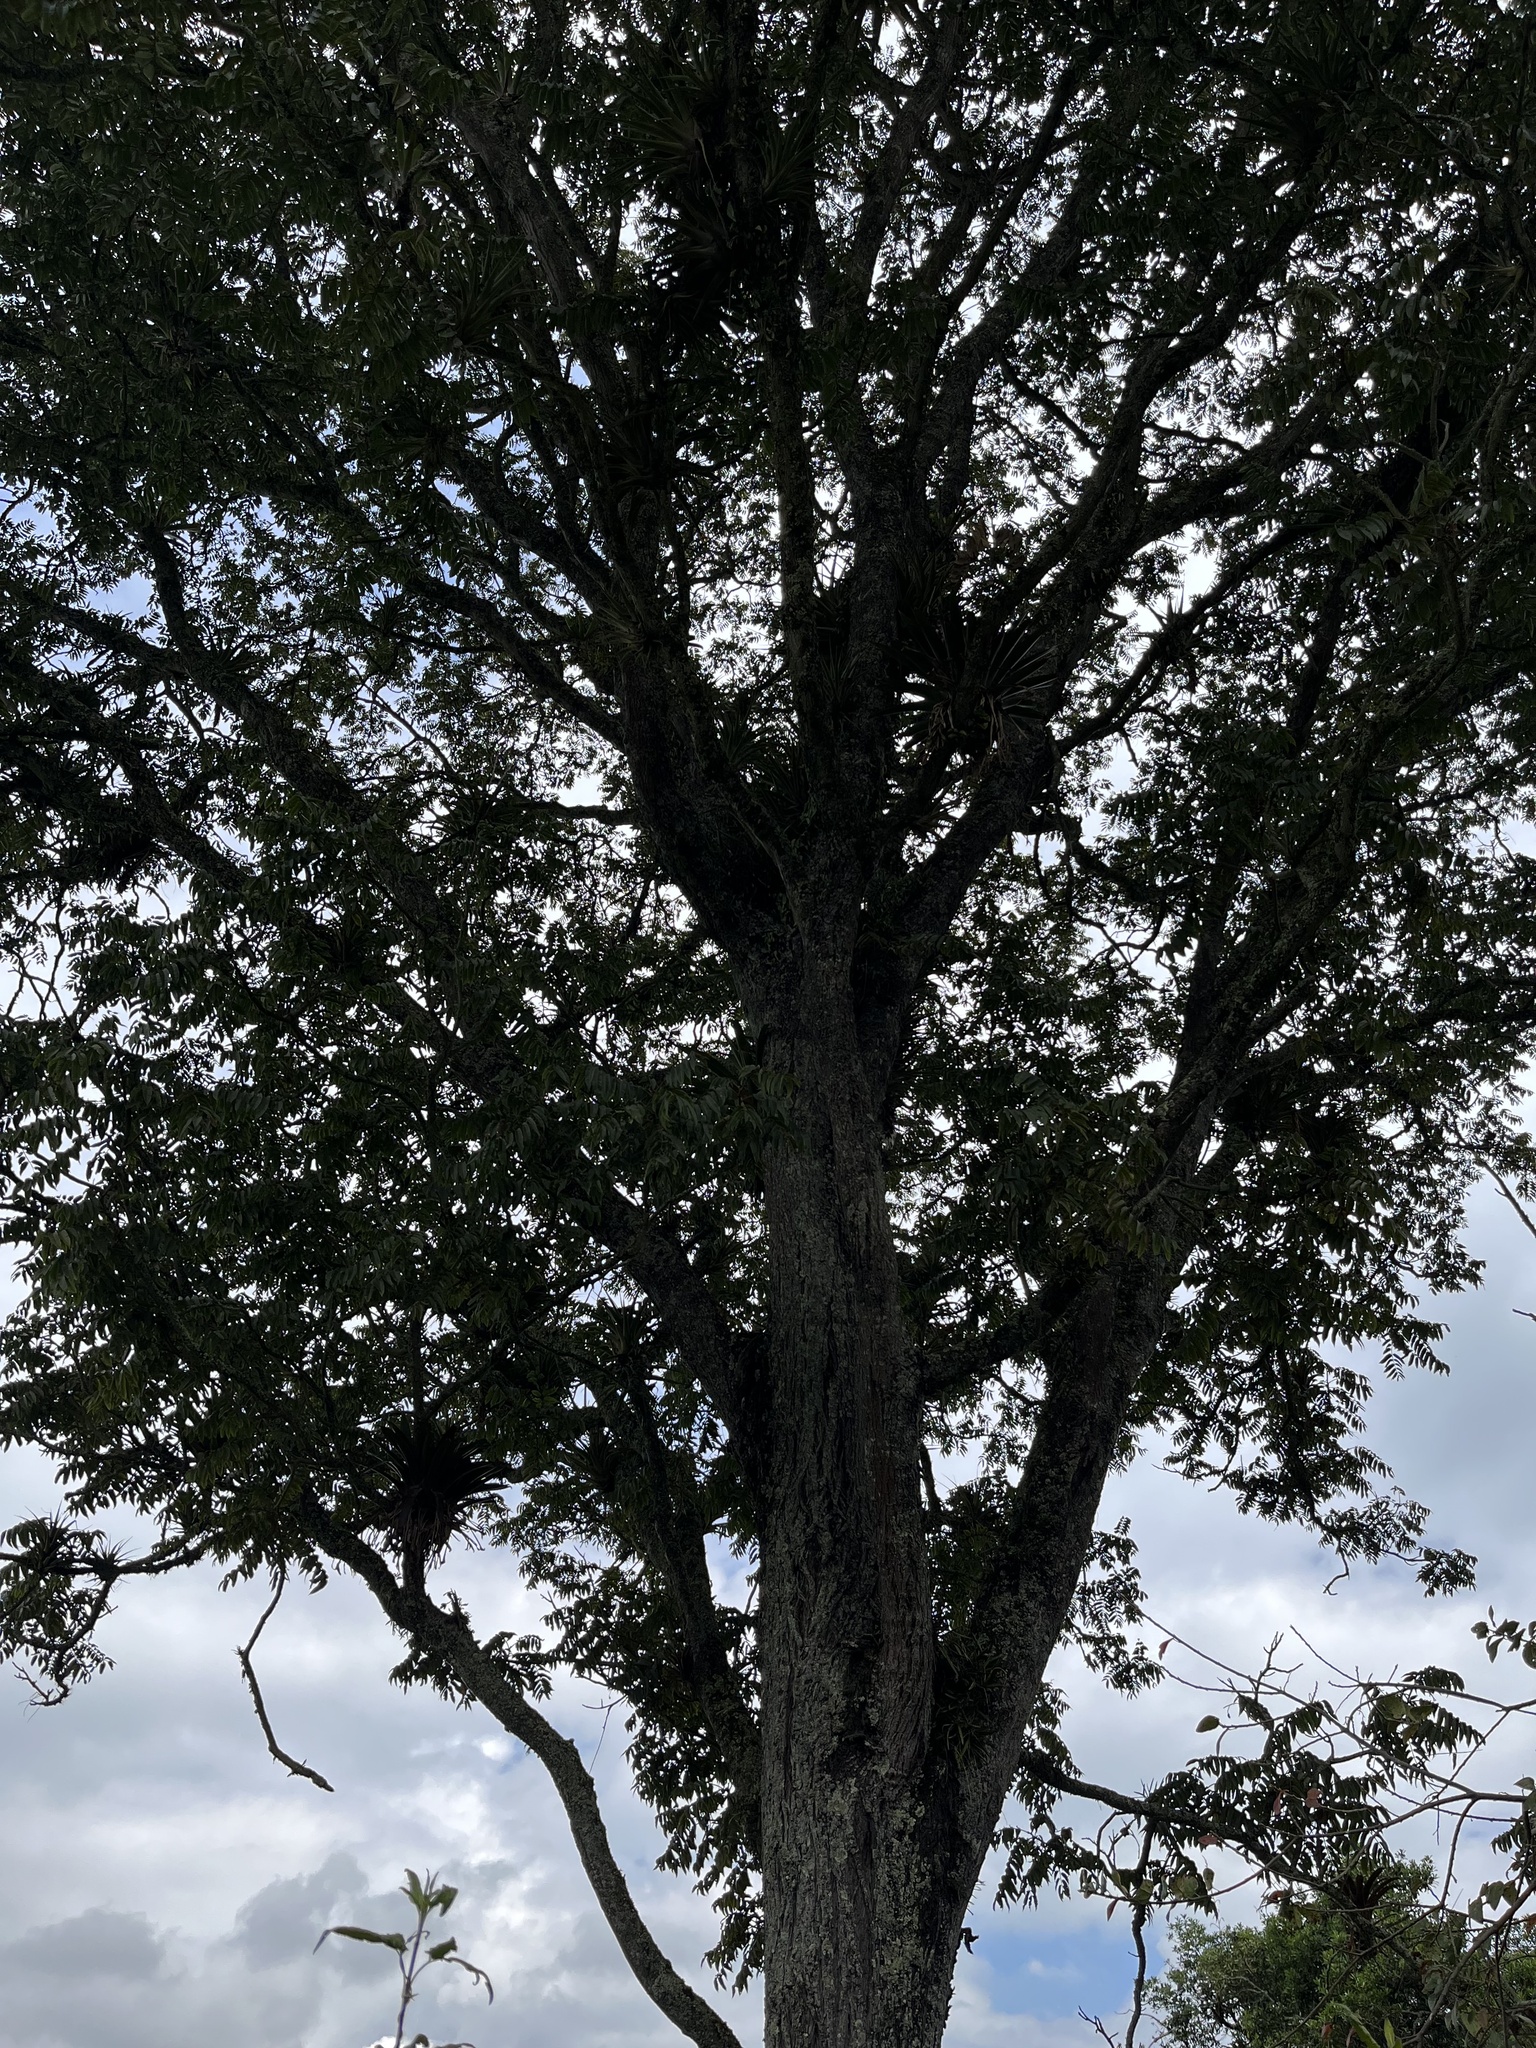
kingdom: Plantae
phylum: Tracheophyta
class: Magnoliopsida
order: Sapindales
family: Meliaceae
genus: Cedrela
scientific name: Cedrela montana
